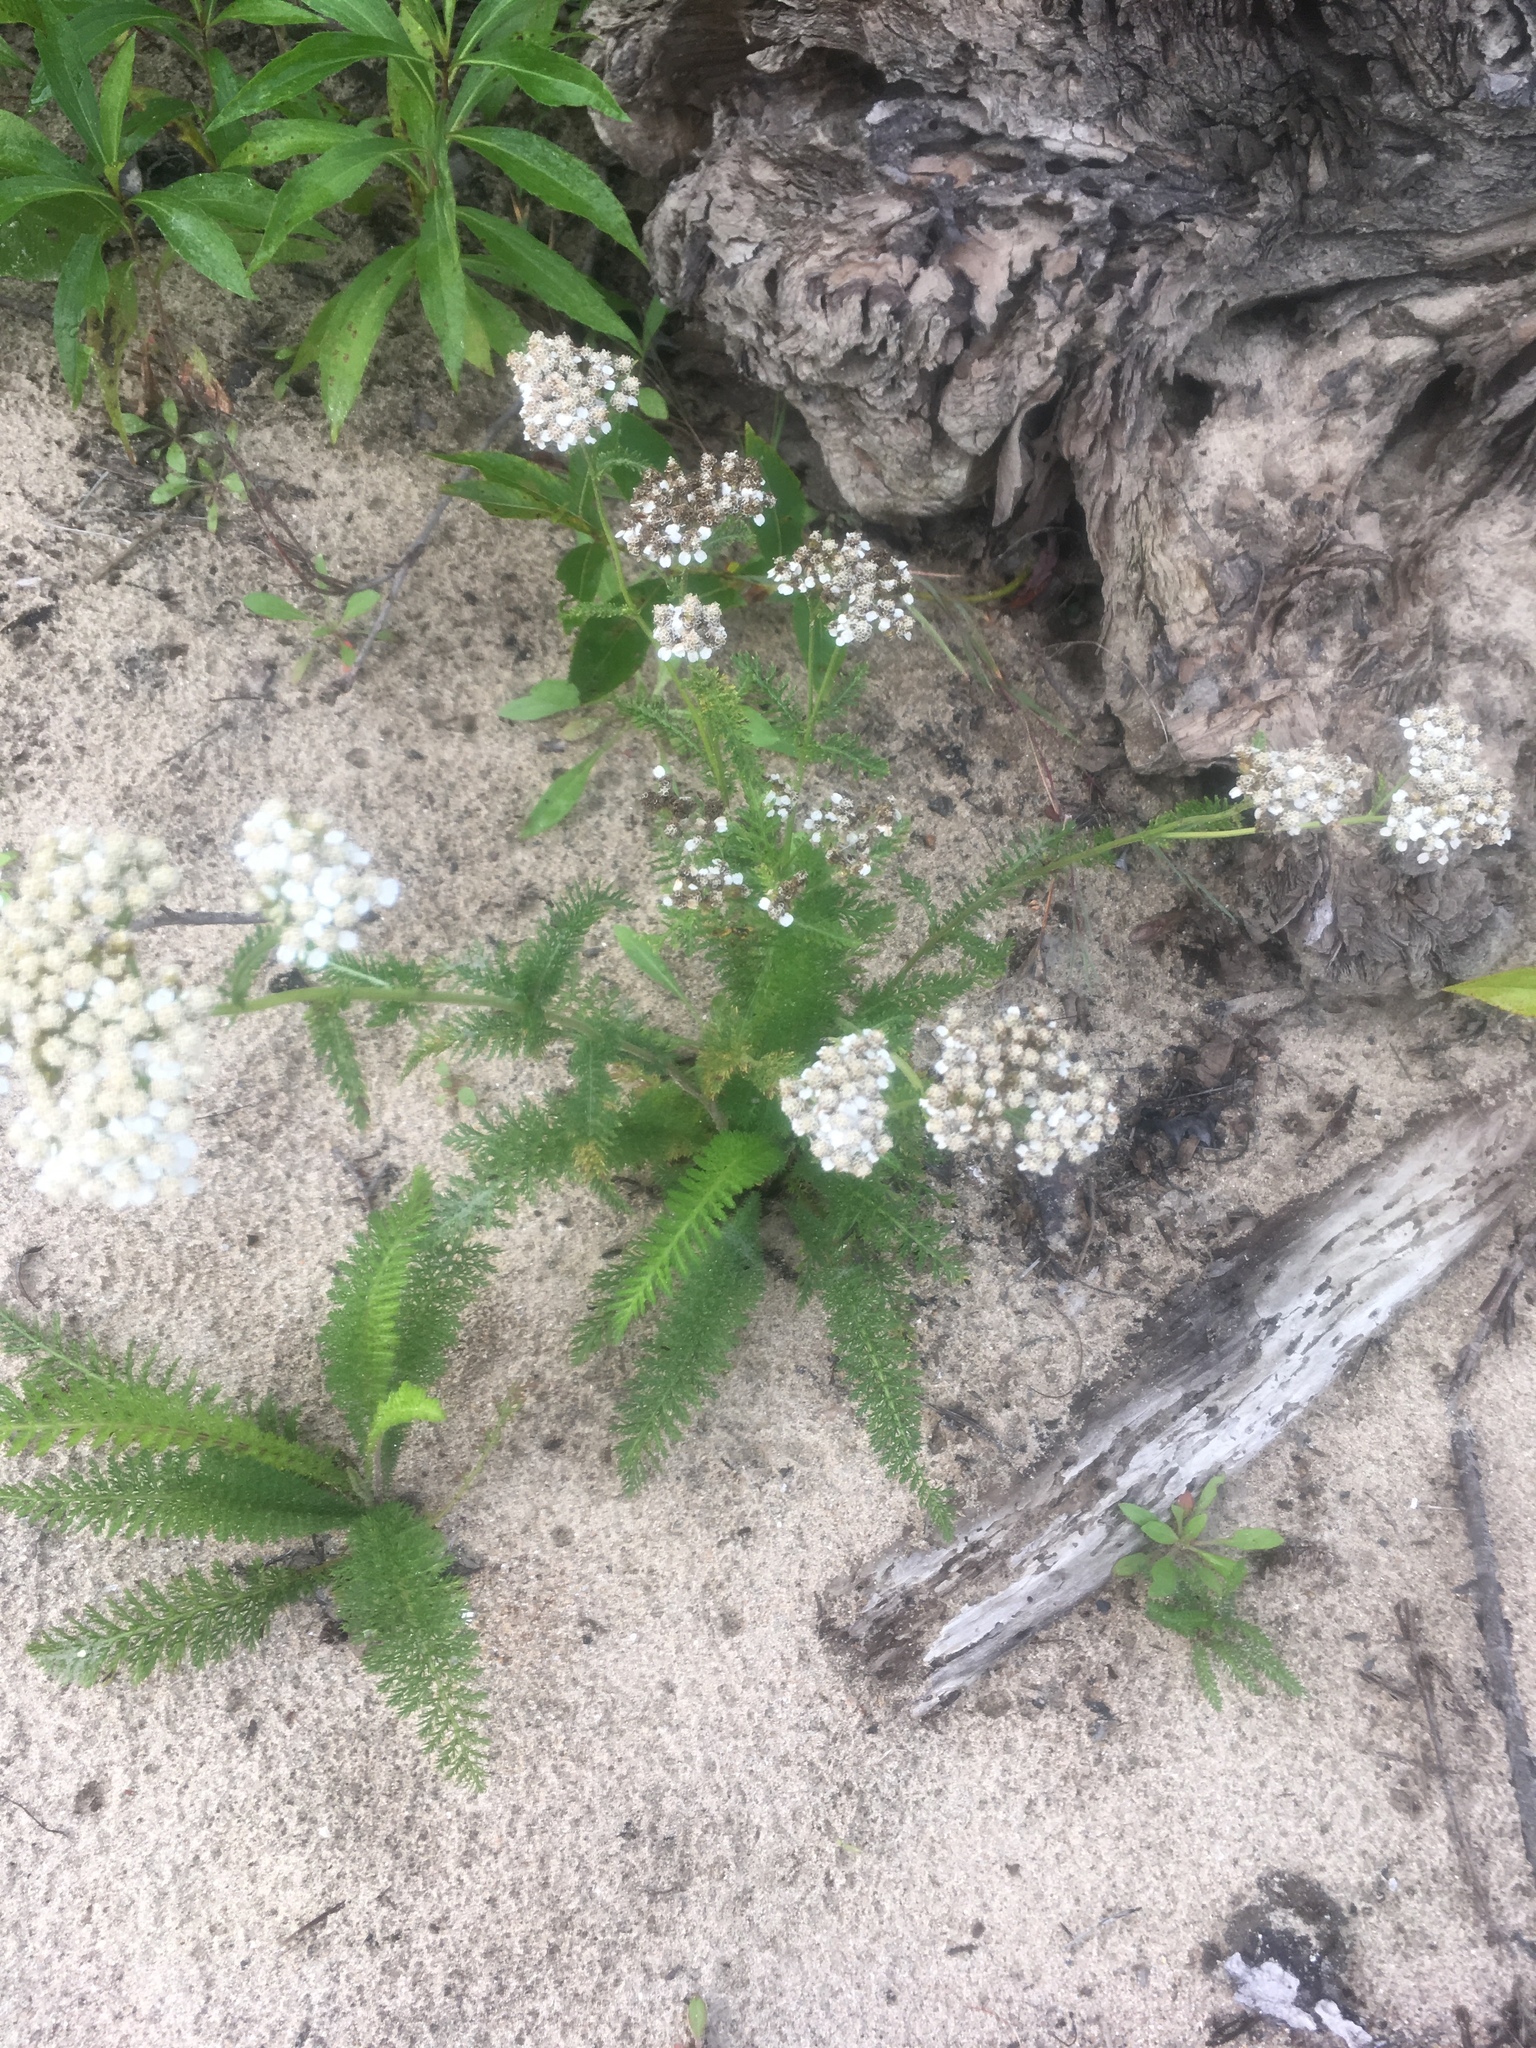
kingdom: Plantae
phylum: Tracheophyta
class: Magnoliopsida
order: Asterales
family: Asteraceae
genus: Achillea
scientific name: Achillea millefolium
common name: Yarrow
